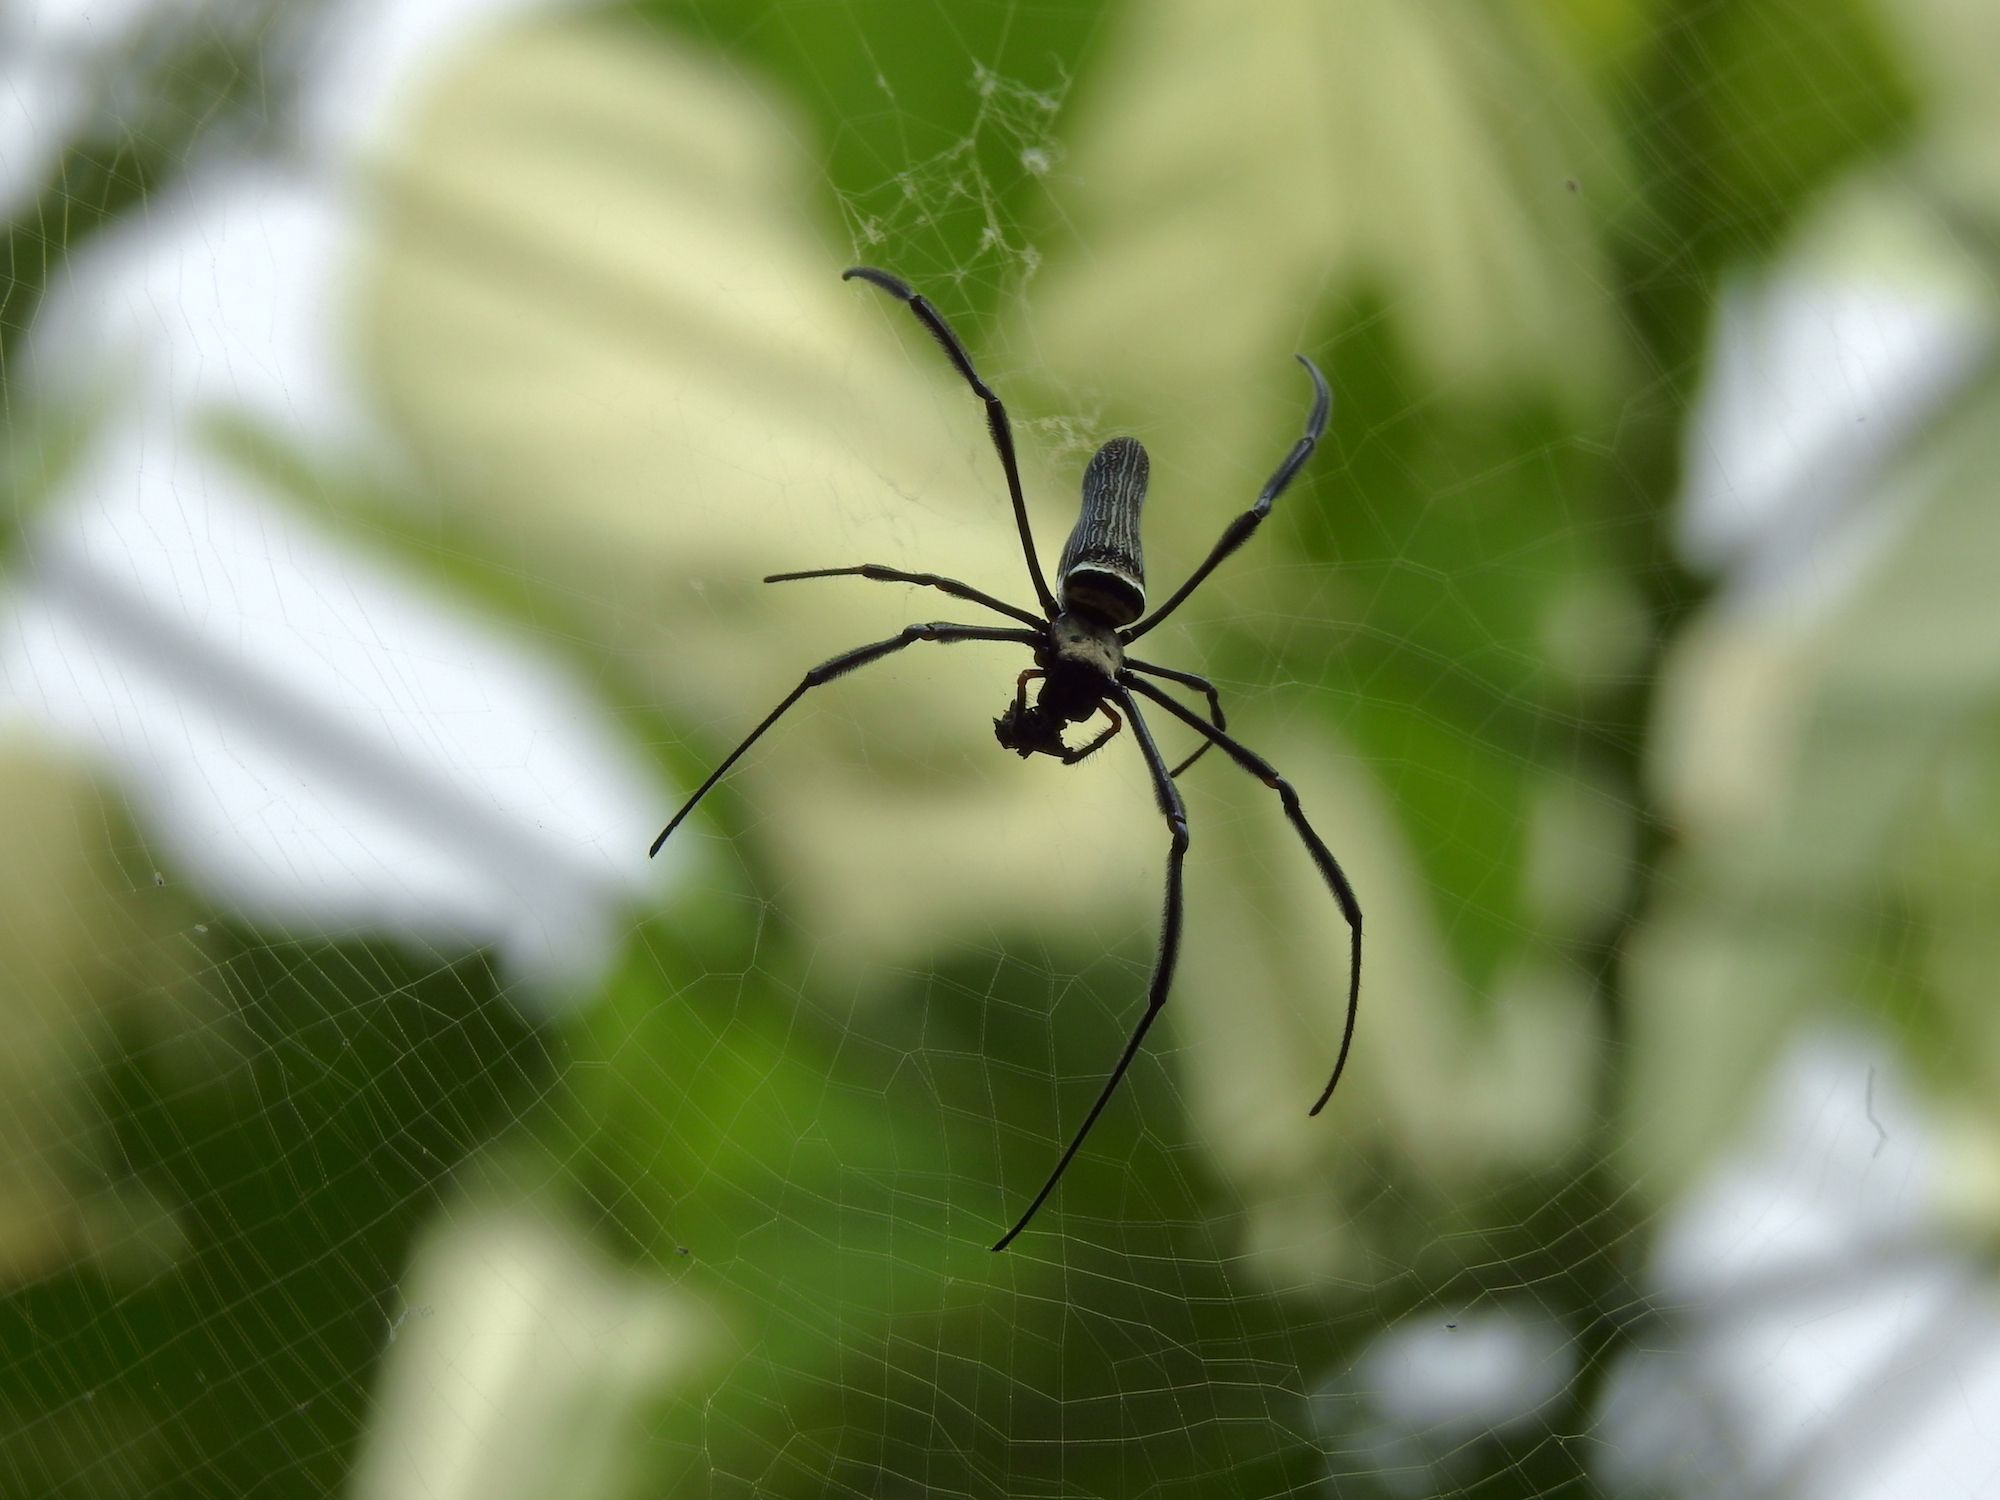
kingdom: Animalia
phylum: Arthropoda
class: Arachnida
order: Araneae
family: Araneidae
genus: Nephila
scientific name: Nephila pilipes
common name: Giant golden orb weaver
